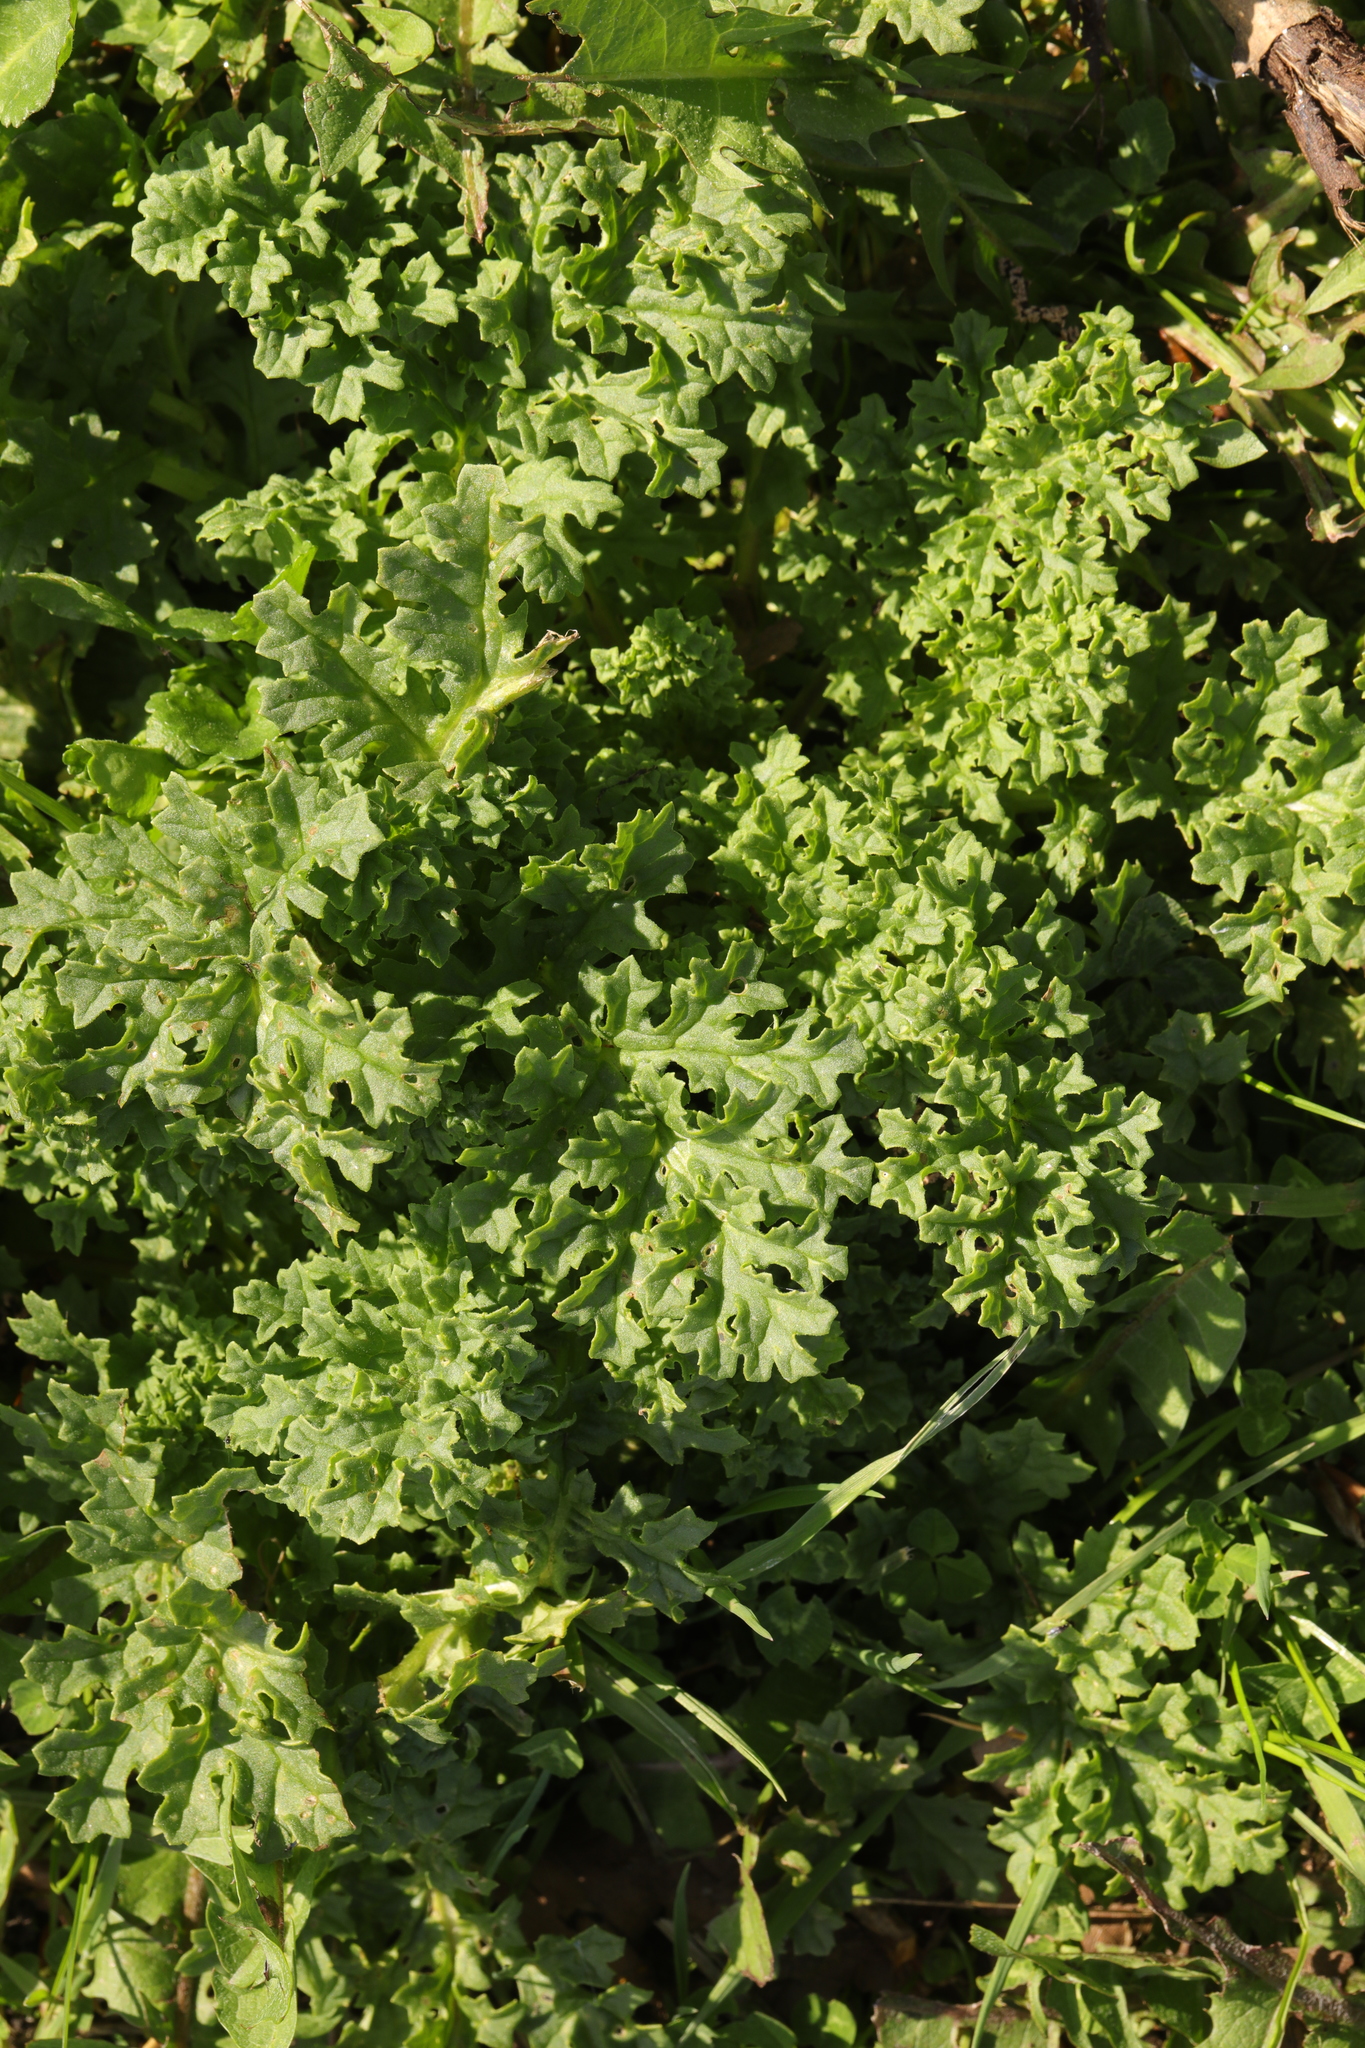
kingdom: Plantae
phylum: Tracheophyta
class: Magnoliopsida
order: Asterales
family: Asteraceae
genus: Jacobaea
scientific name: Jacobaea vulgaris
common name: Stinking willie
